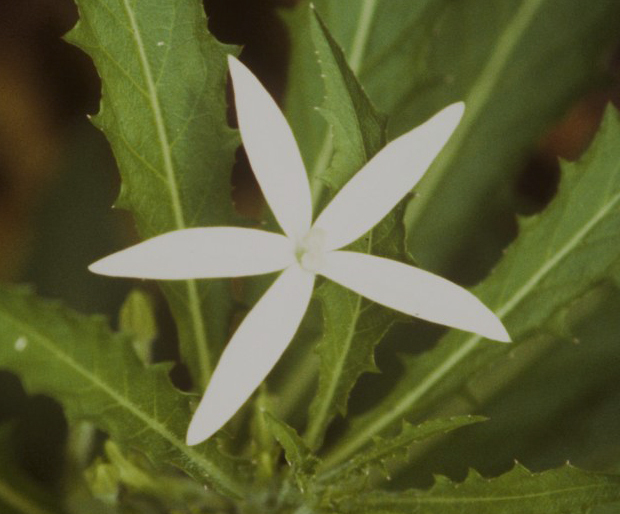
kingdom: Plantae
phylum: Tracheophyta
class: Magnoliopsida
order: Asterales
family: Campanulaceae
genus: Hippobroma
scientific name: Hippobroma longiflora
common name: Madamfate
